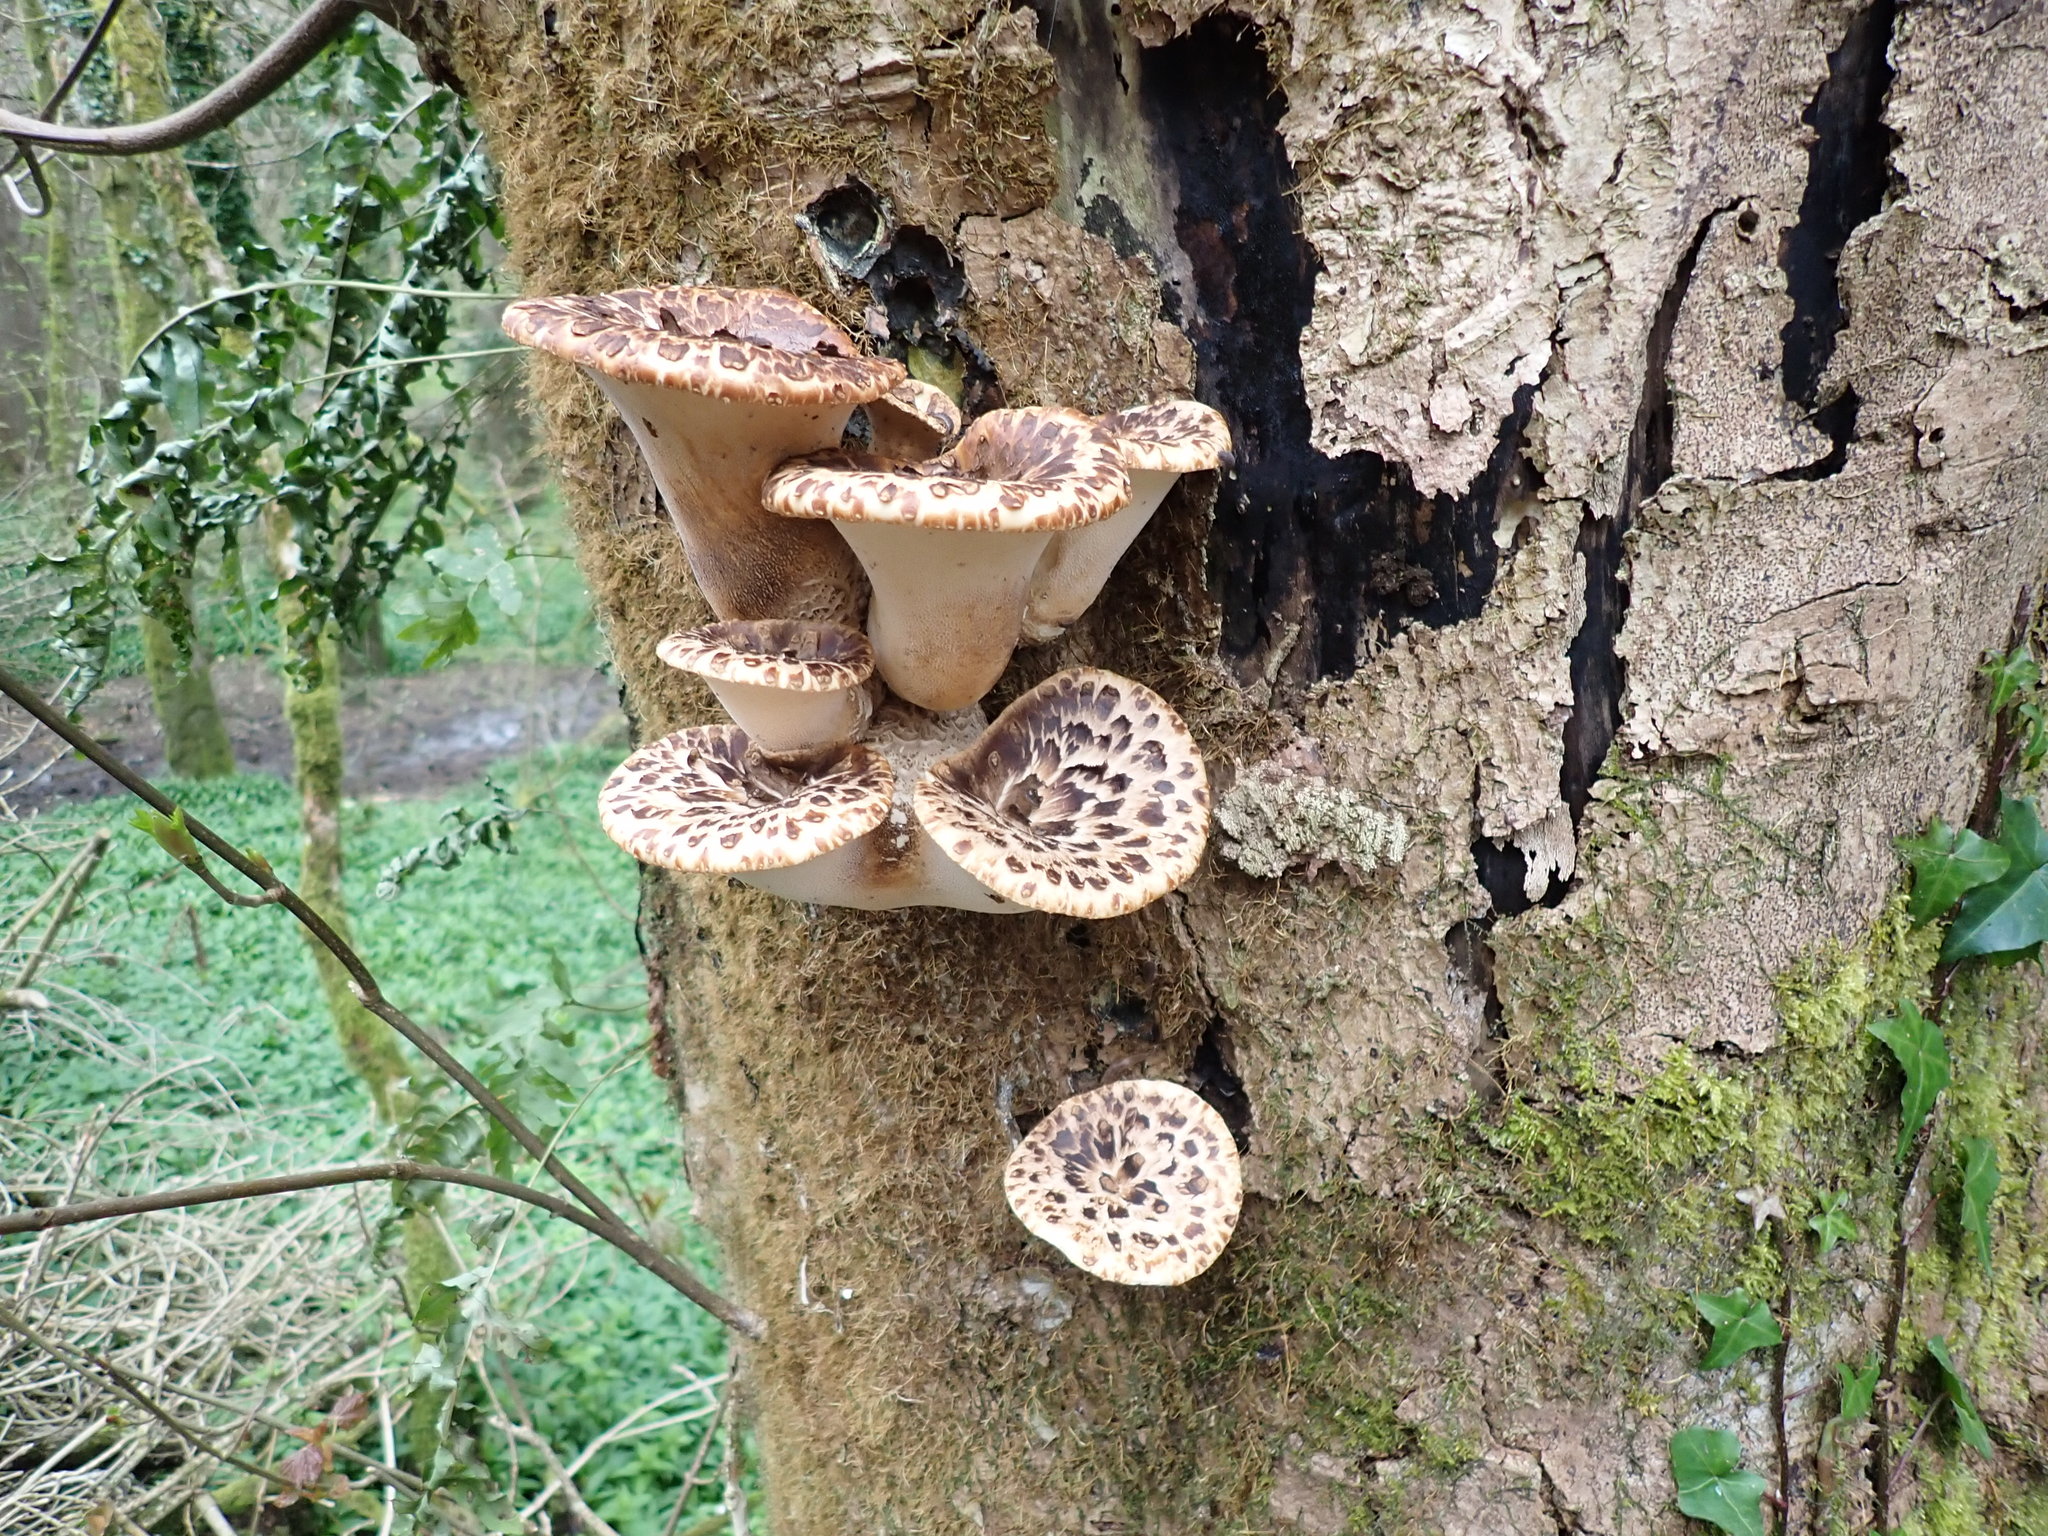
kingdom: Fungi
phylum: Basidiomycota
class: Agaricomycetes
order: Polyporales
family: Polyporaceae
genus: Cerioporus
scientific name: Cerioporus squamosus
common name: Dryad's saddle
